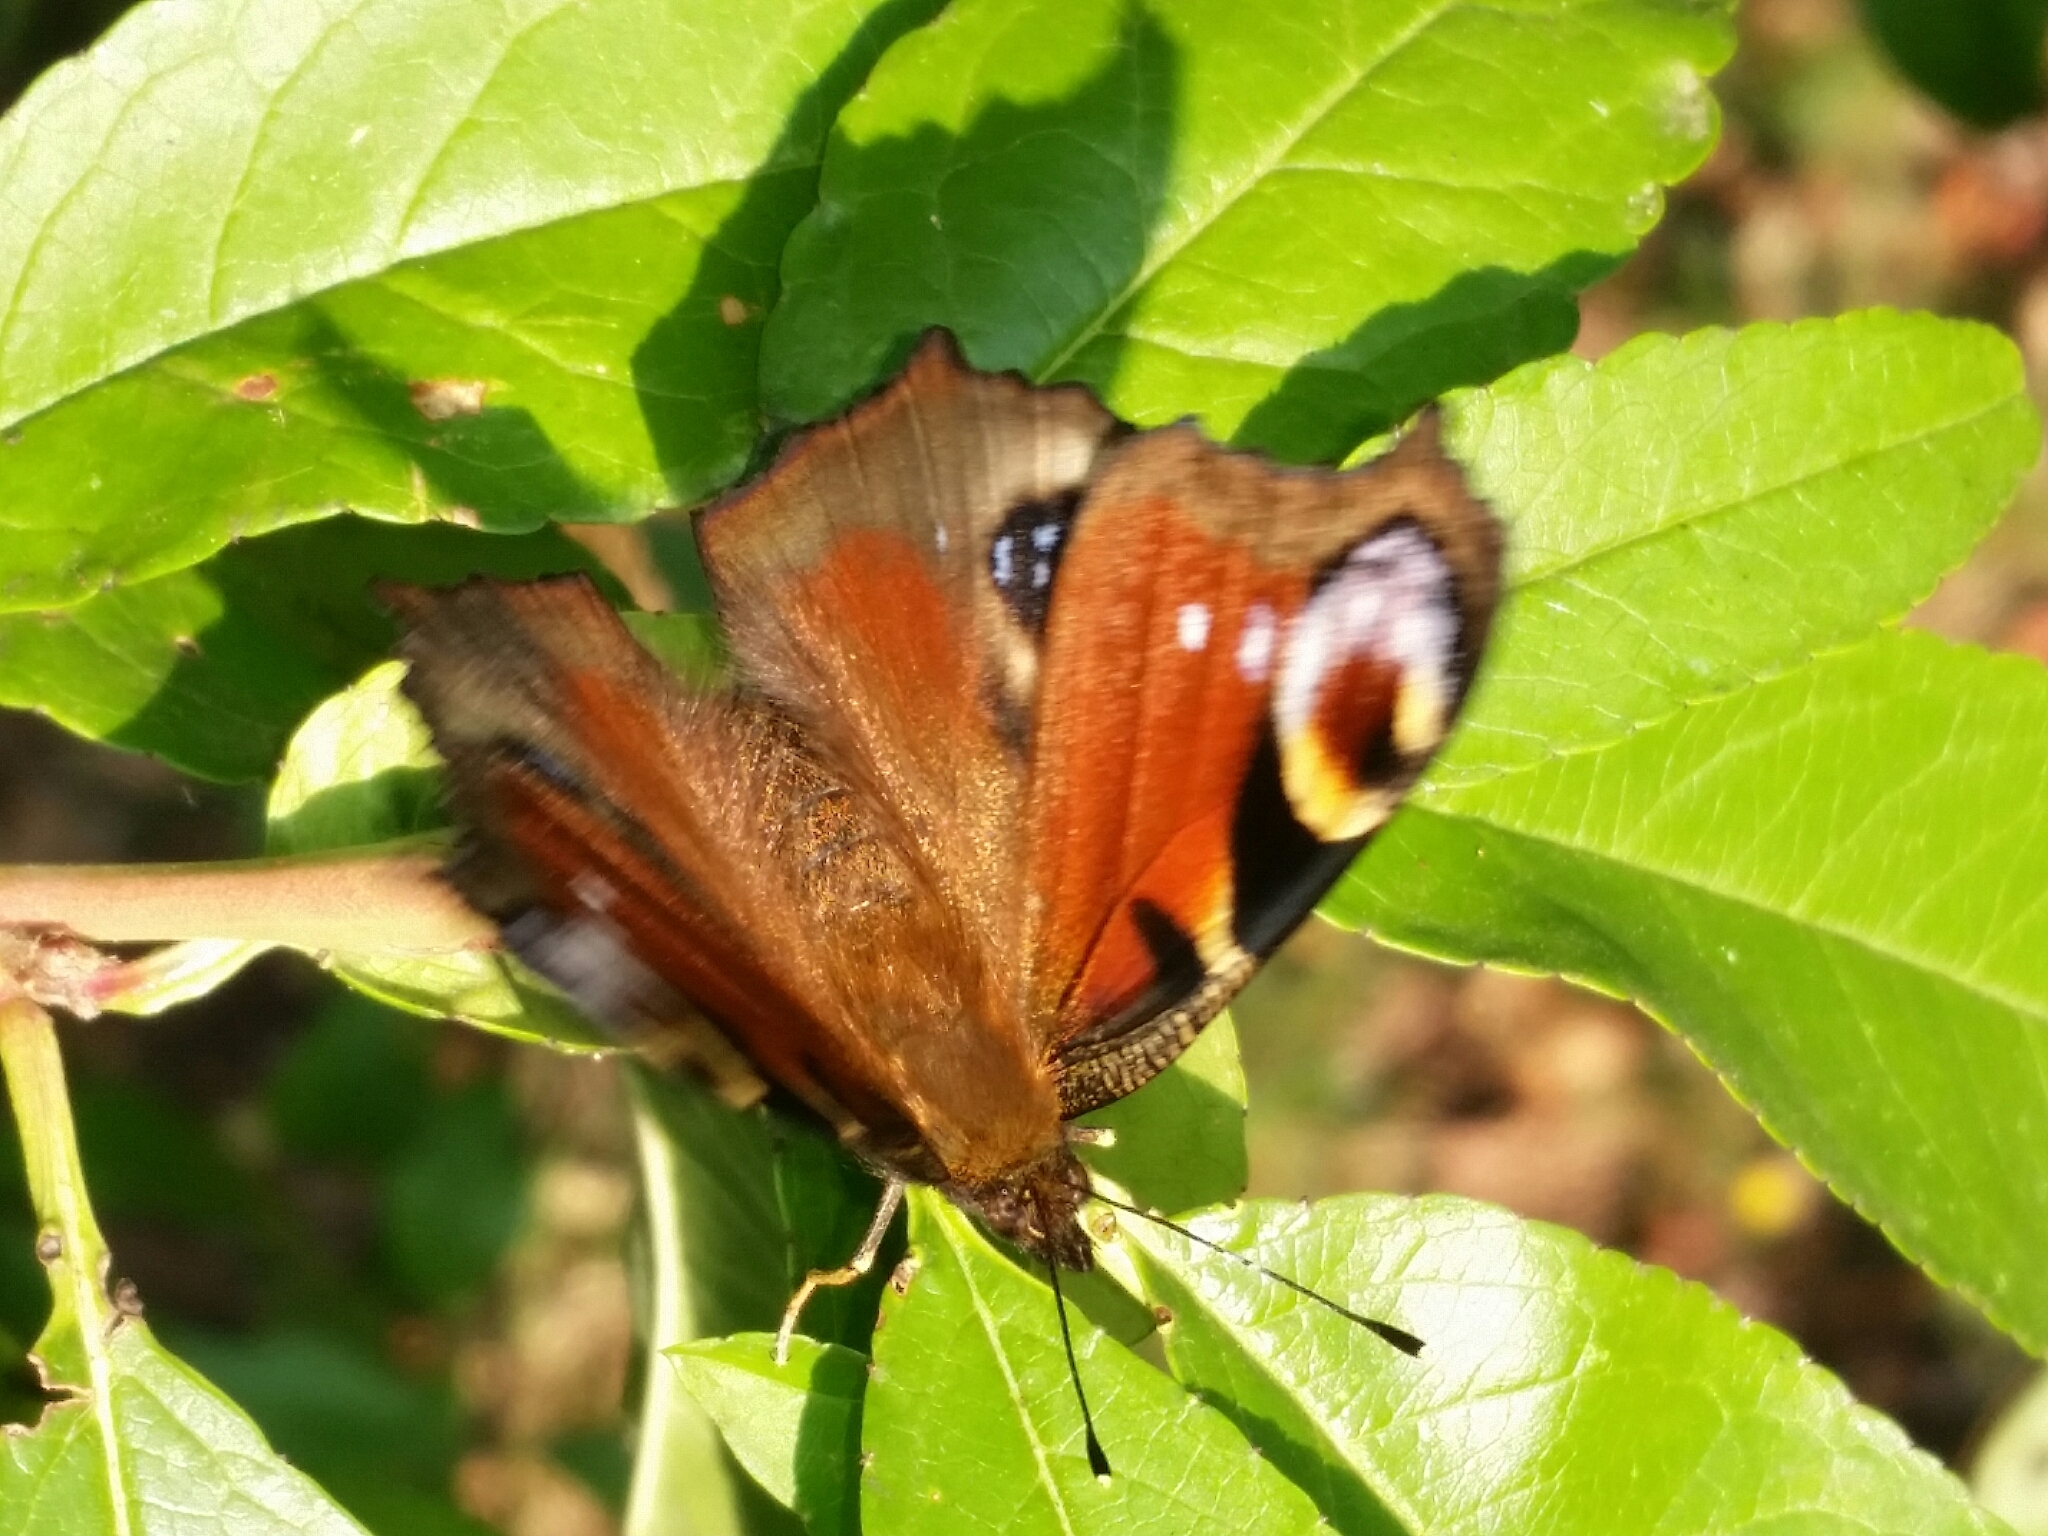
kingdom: Animalia
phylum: Arthropoda
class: Insecta
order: Lepidoptera
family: Nymphalidae
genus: Aglais
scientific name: Aglais io
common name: Peacock
